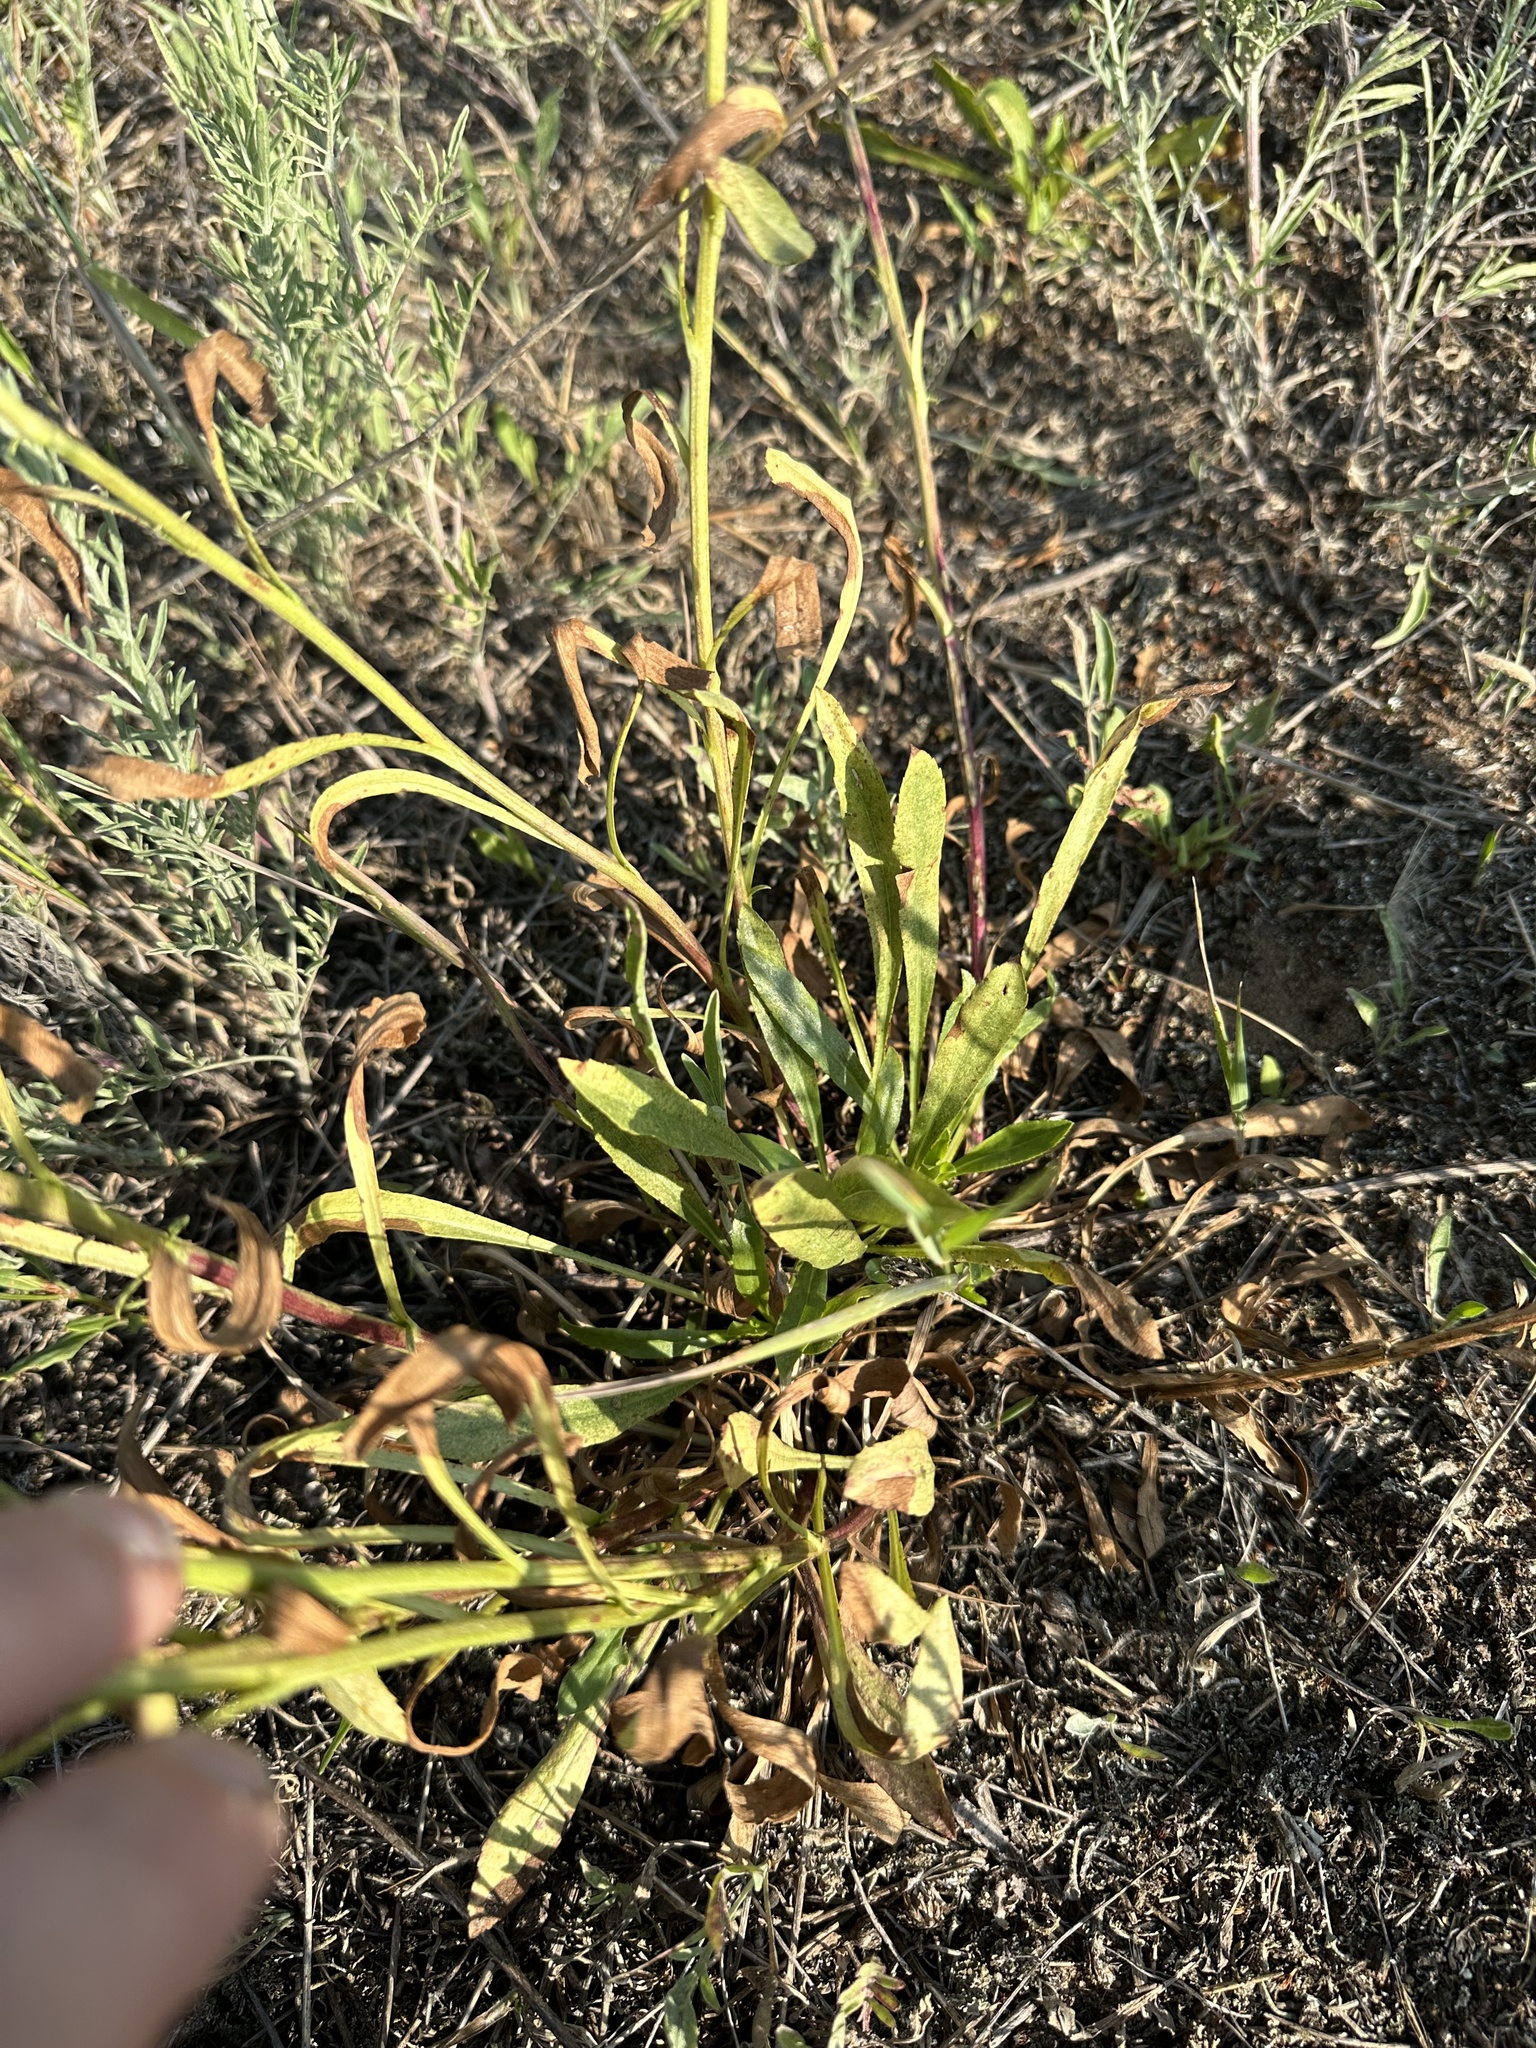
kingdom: Plantae
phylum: Tracheophyta
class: Magnoliopsida
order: Asterales
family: Asteraceae
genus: Solidago
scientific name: Solidago jejunifolia
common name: Few-leaved goldenrod
